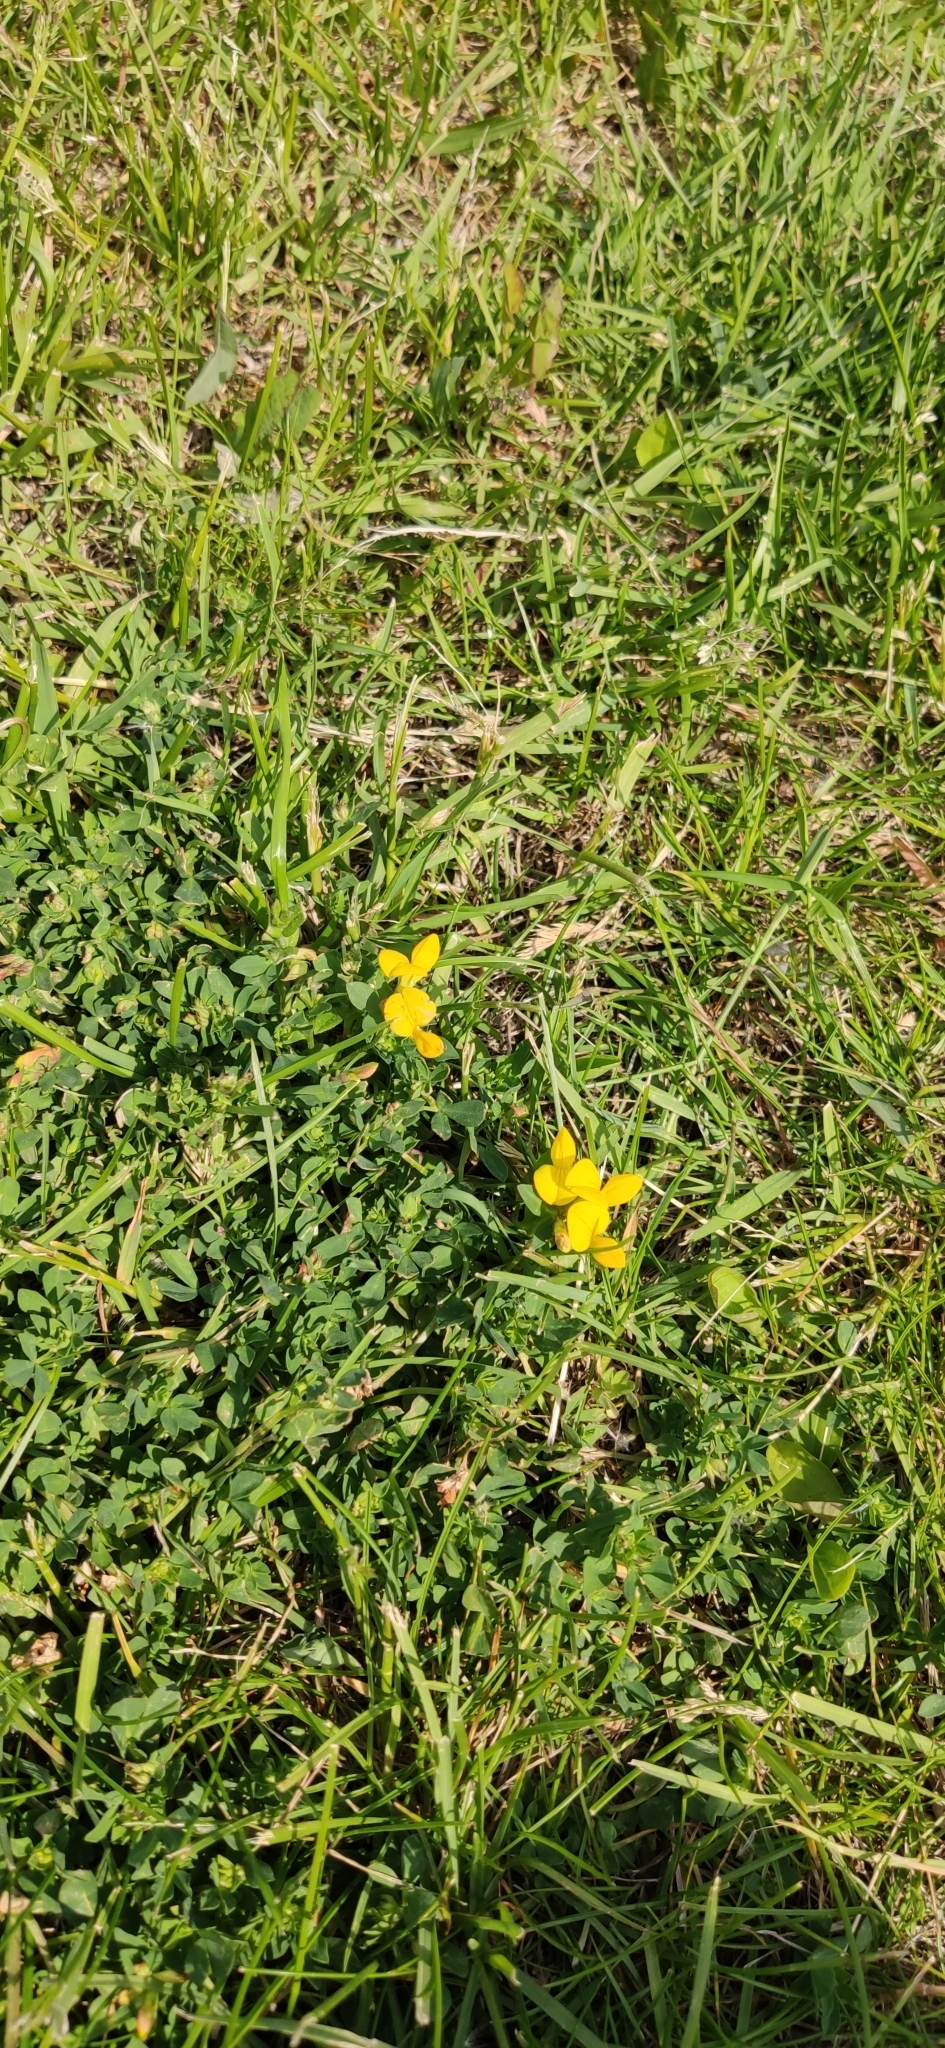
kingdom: Plantae
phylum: Tracheophyta
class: Magnoliopsida
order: Fabales
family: Fabaceae
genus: Lotus
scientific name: Lotus corniculatus
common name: Common bird's-foot-trefoil
